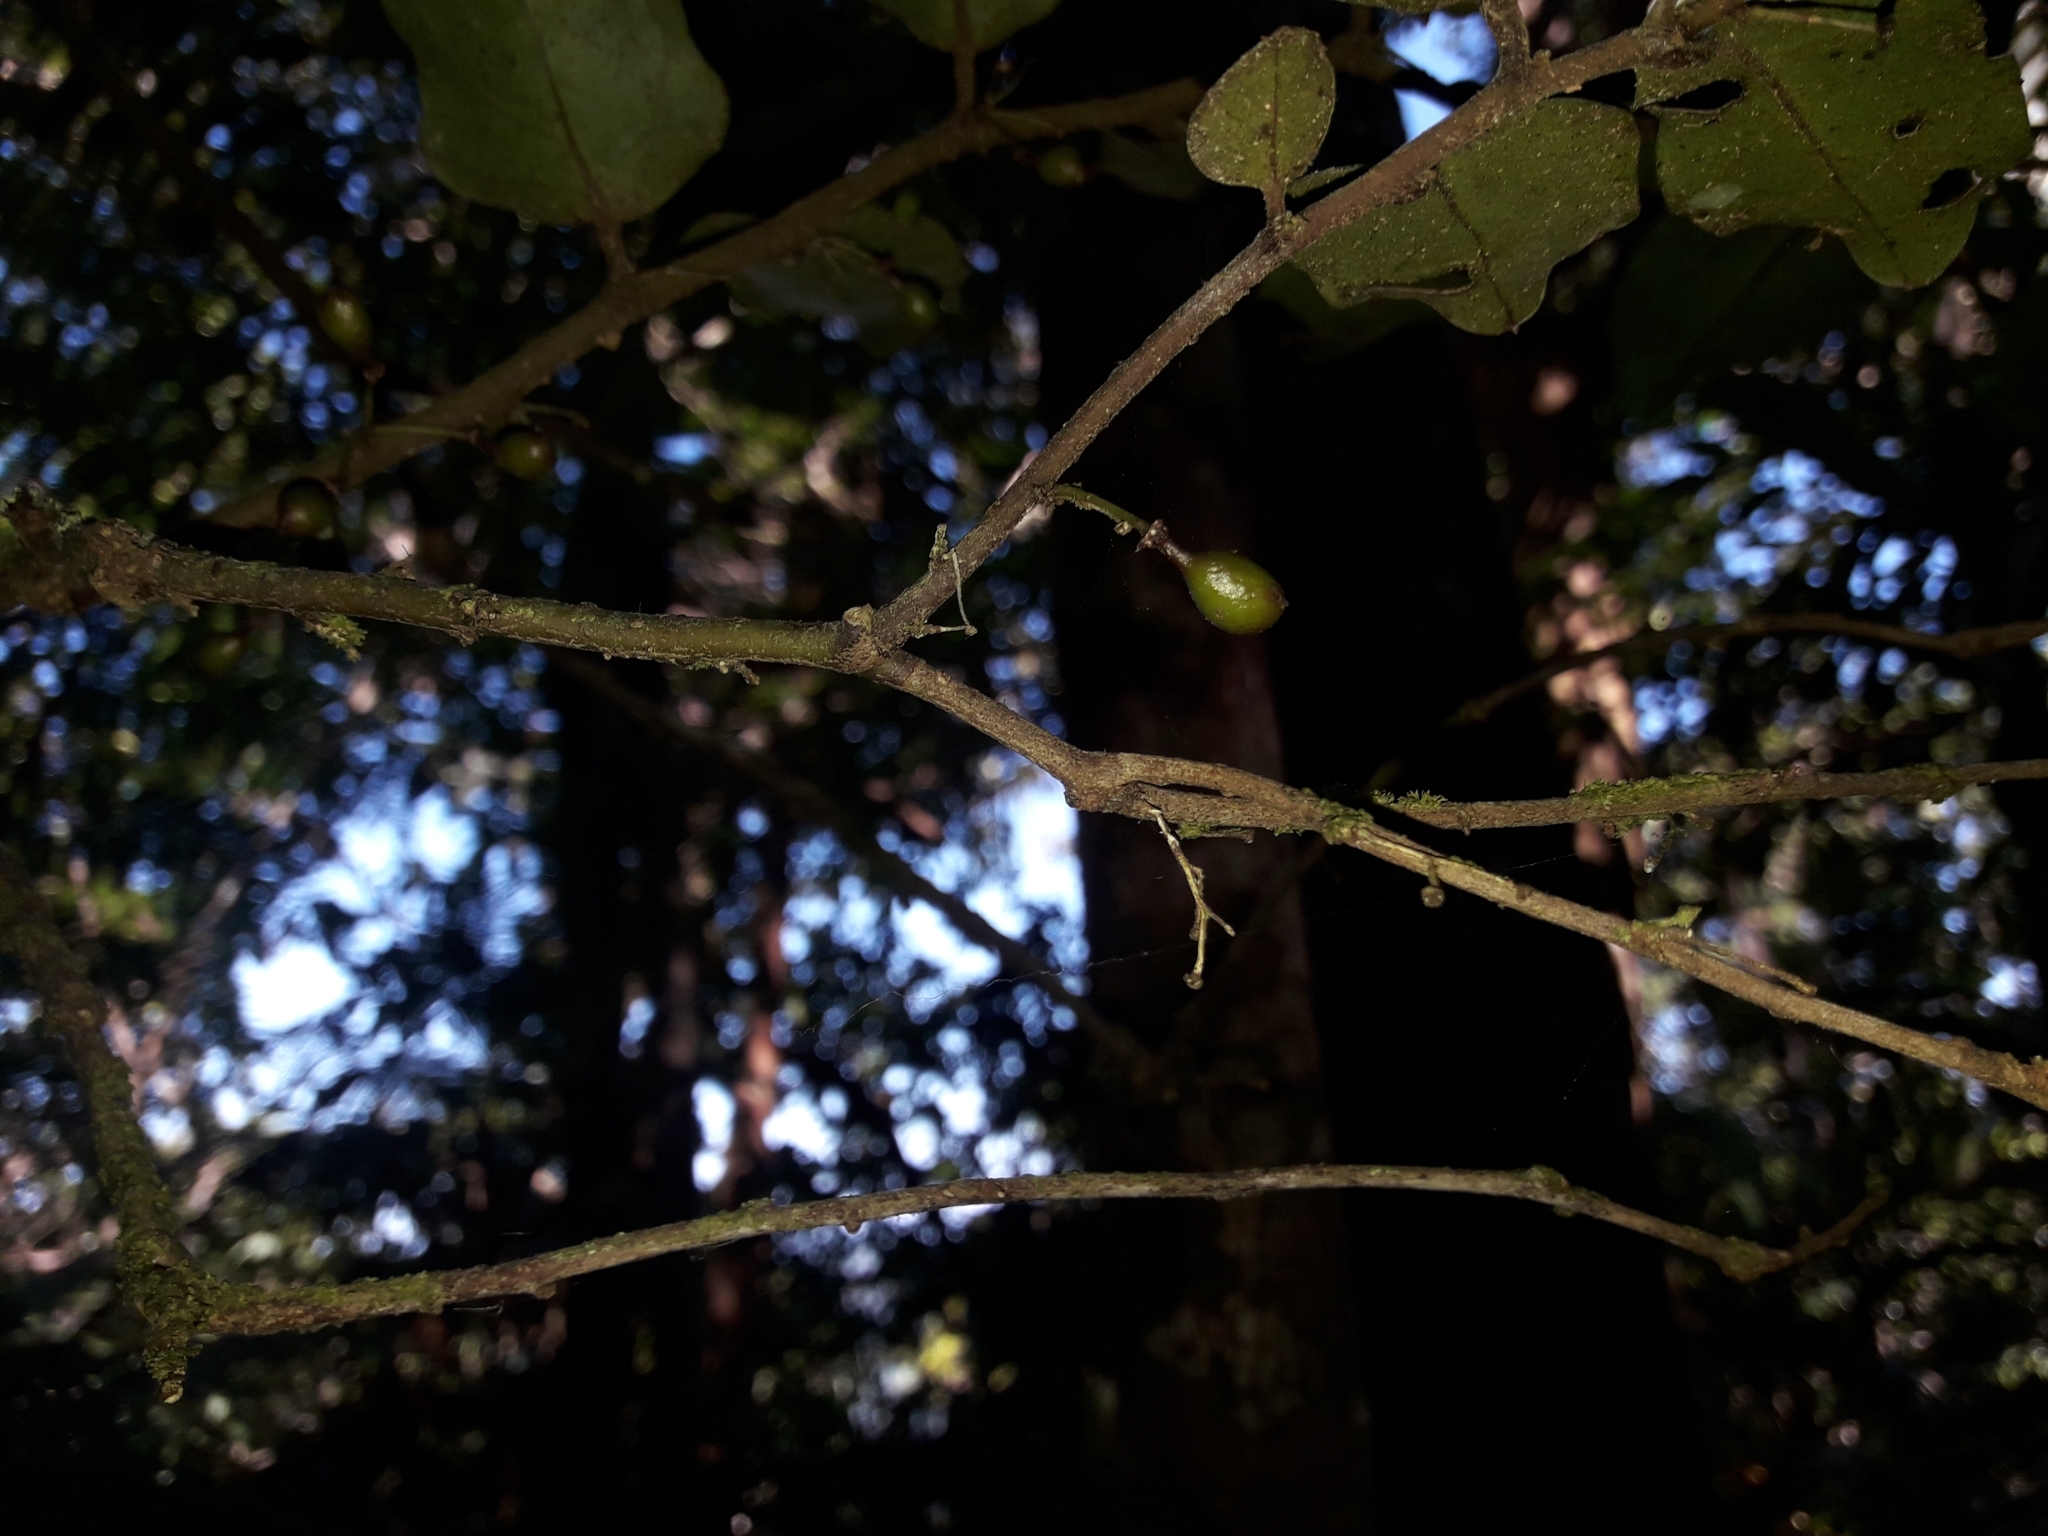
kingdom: Plantae
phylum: Tracheophyta
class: Magnoliopsida
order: Amborellales
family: Amborellaceae
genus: Amborella
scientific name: Amborella trichopoda
